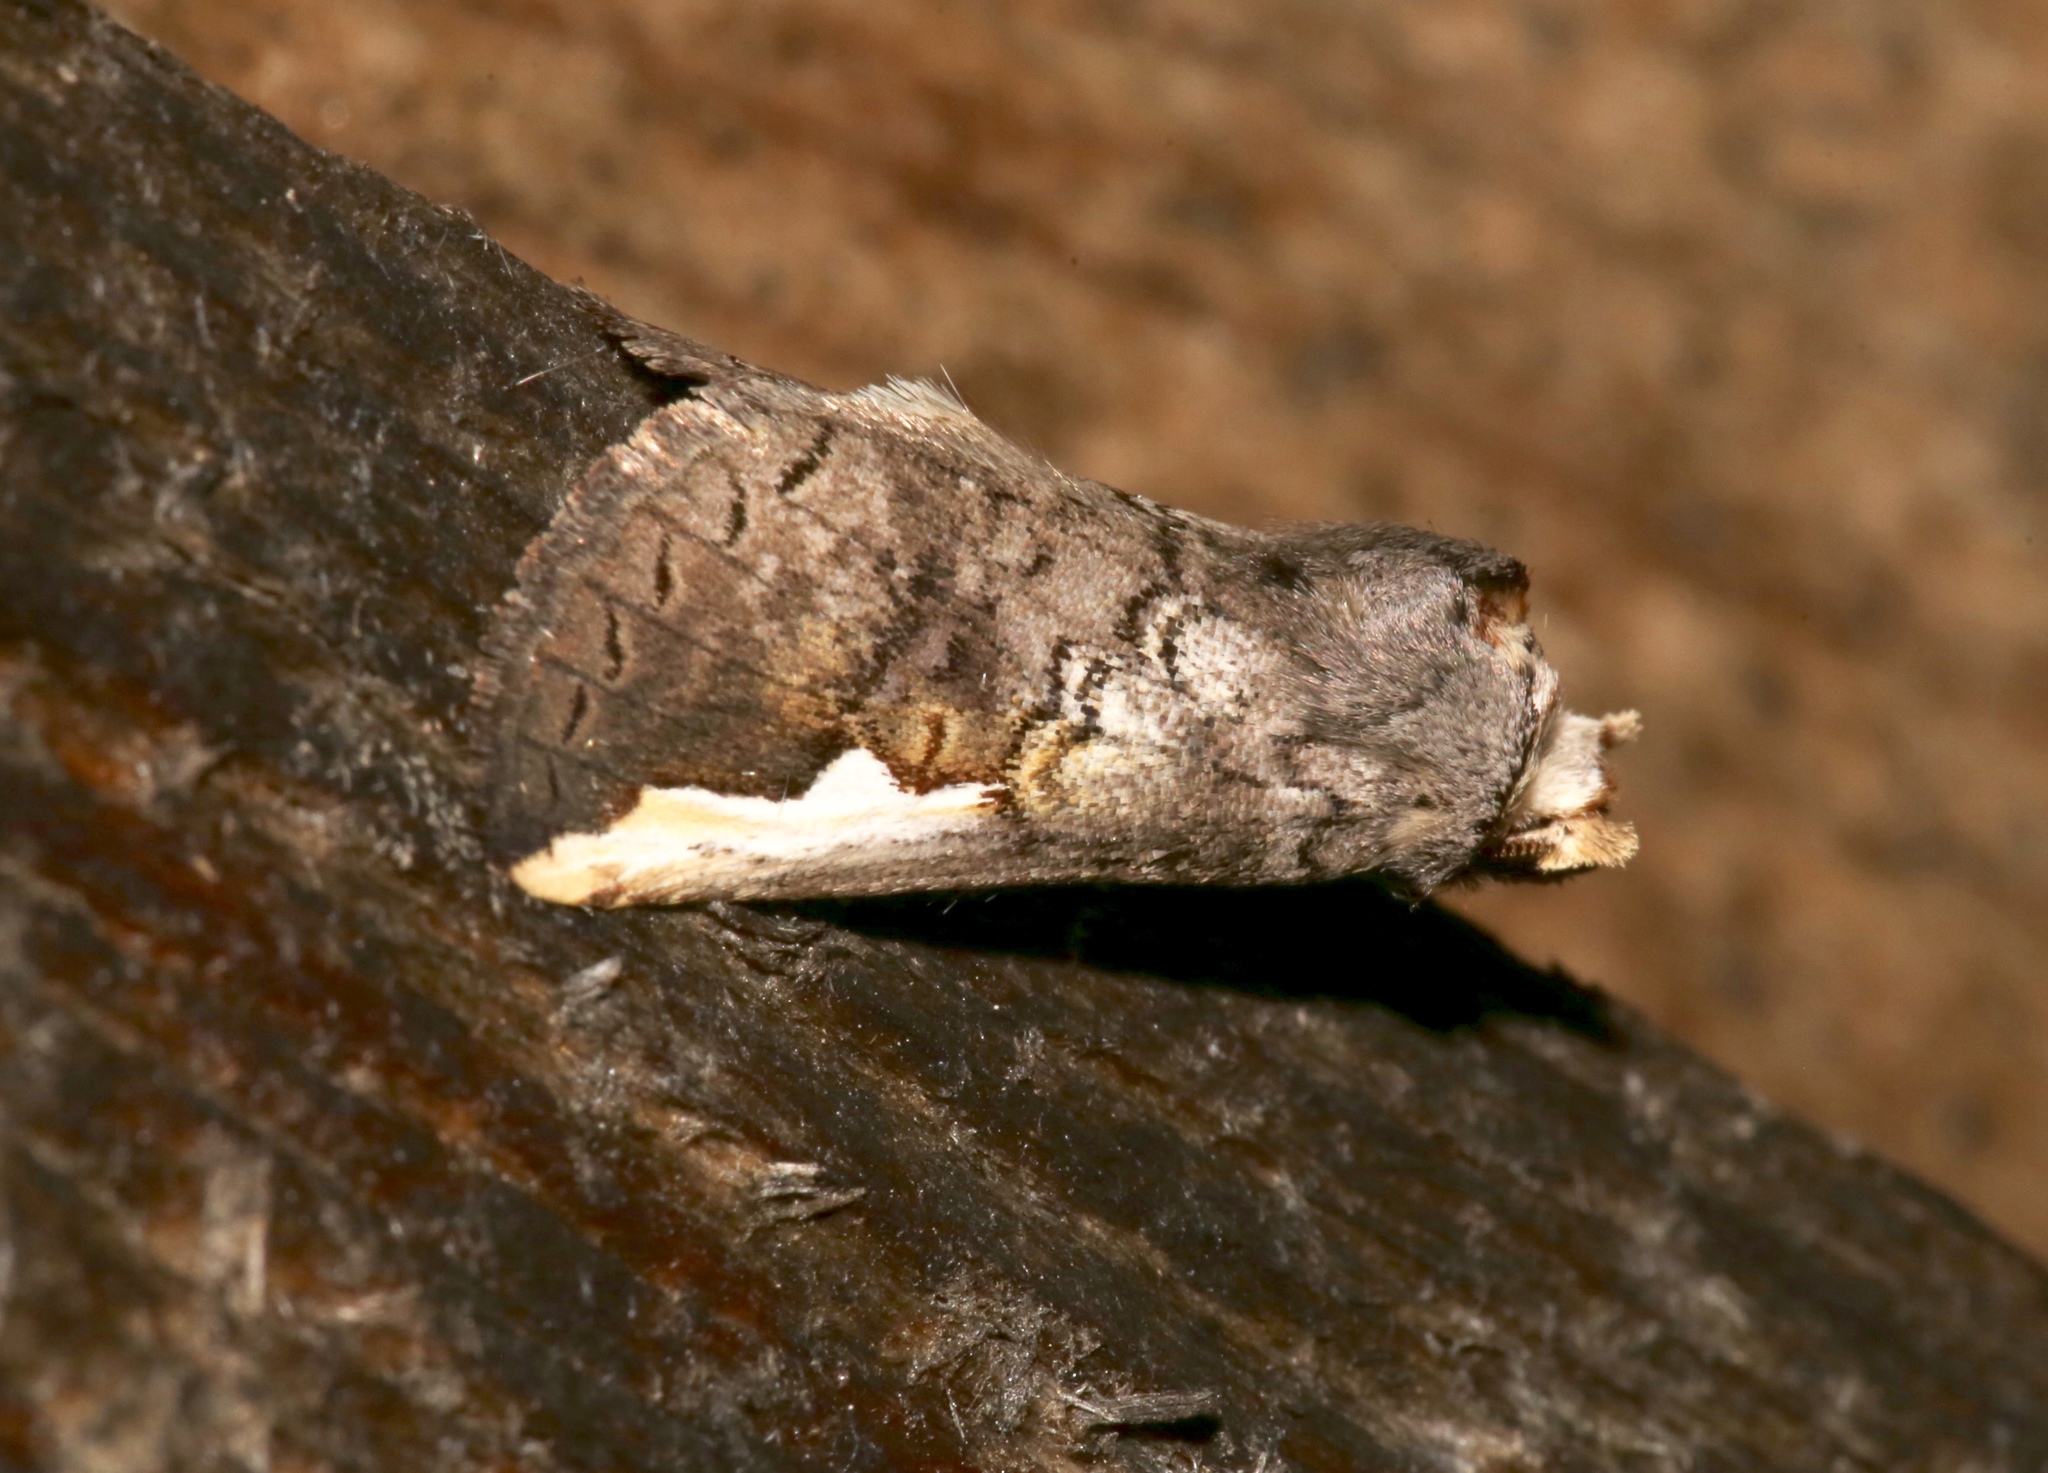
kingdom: Animalia
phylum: Arthropoda
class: Insecta
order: Lepidoptera
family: Notodontidae
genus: Symmerista
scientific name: Symmerista
